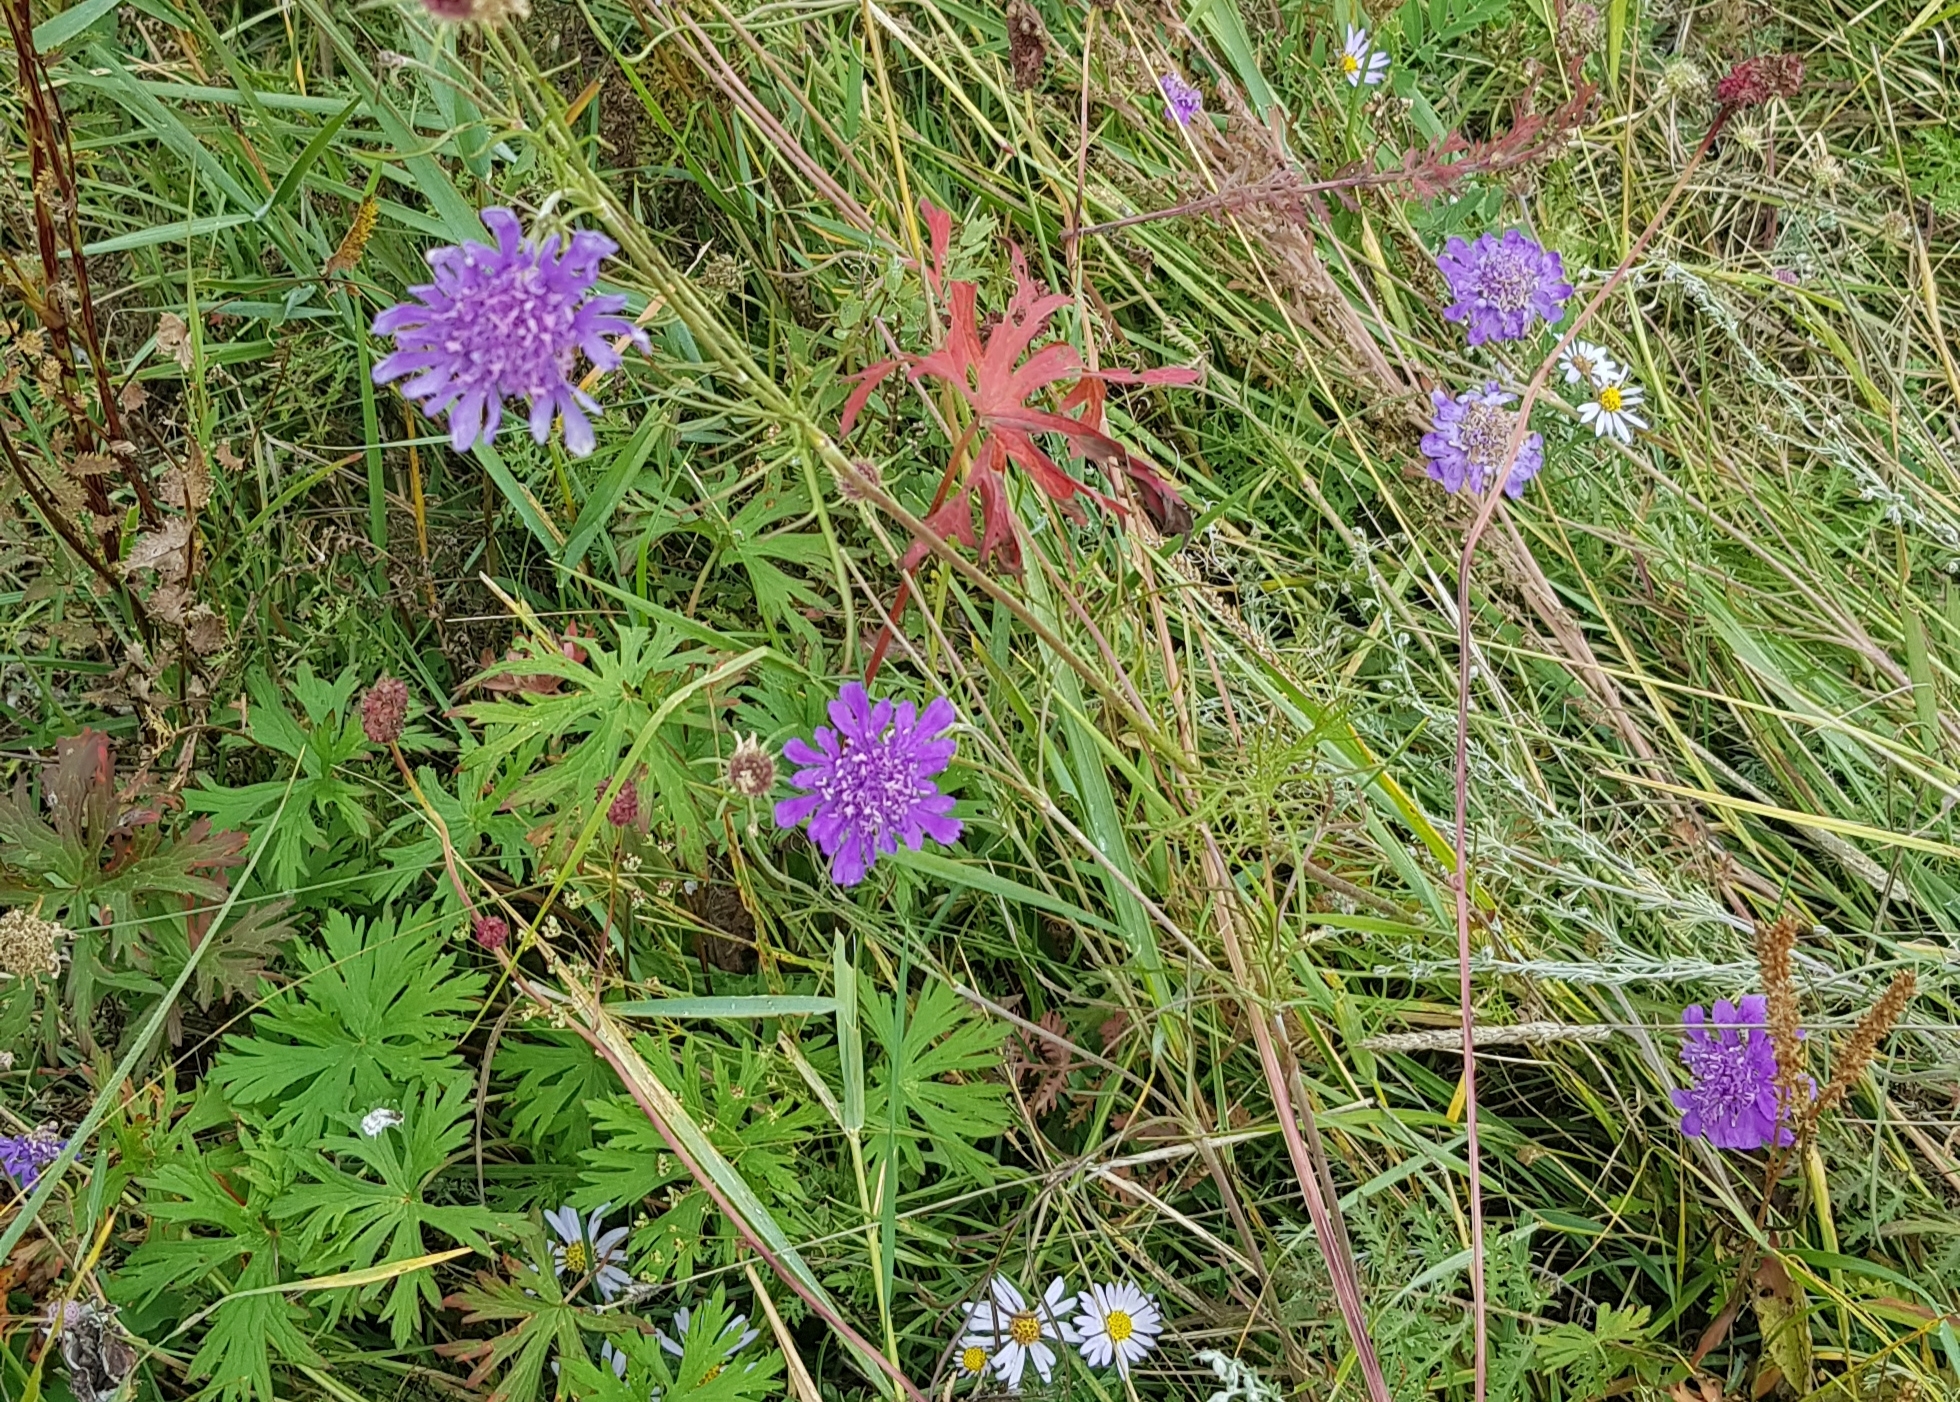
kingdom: Plantae
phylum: Tracheophyta
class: Magnoliopsida
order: Dipsacales
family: Caprifoliaceae
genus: Scabiosa
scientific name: Scabiosa comosa
